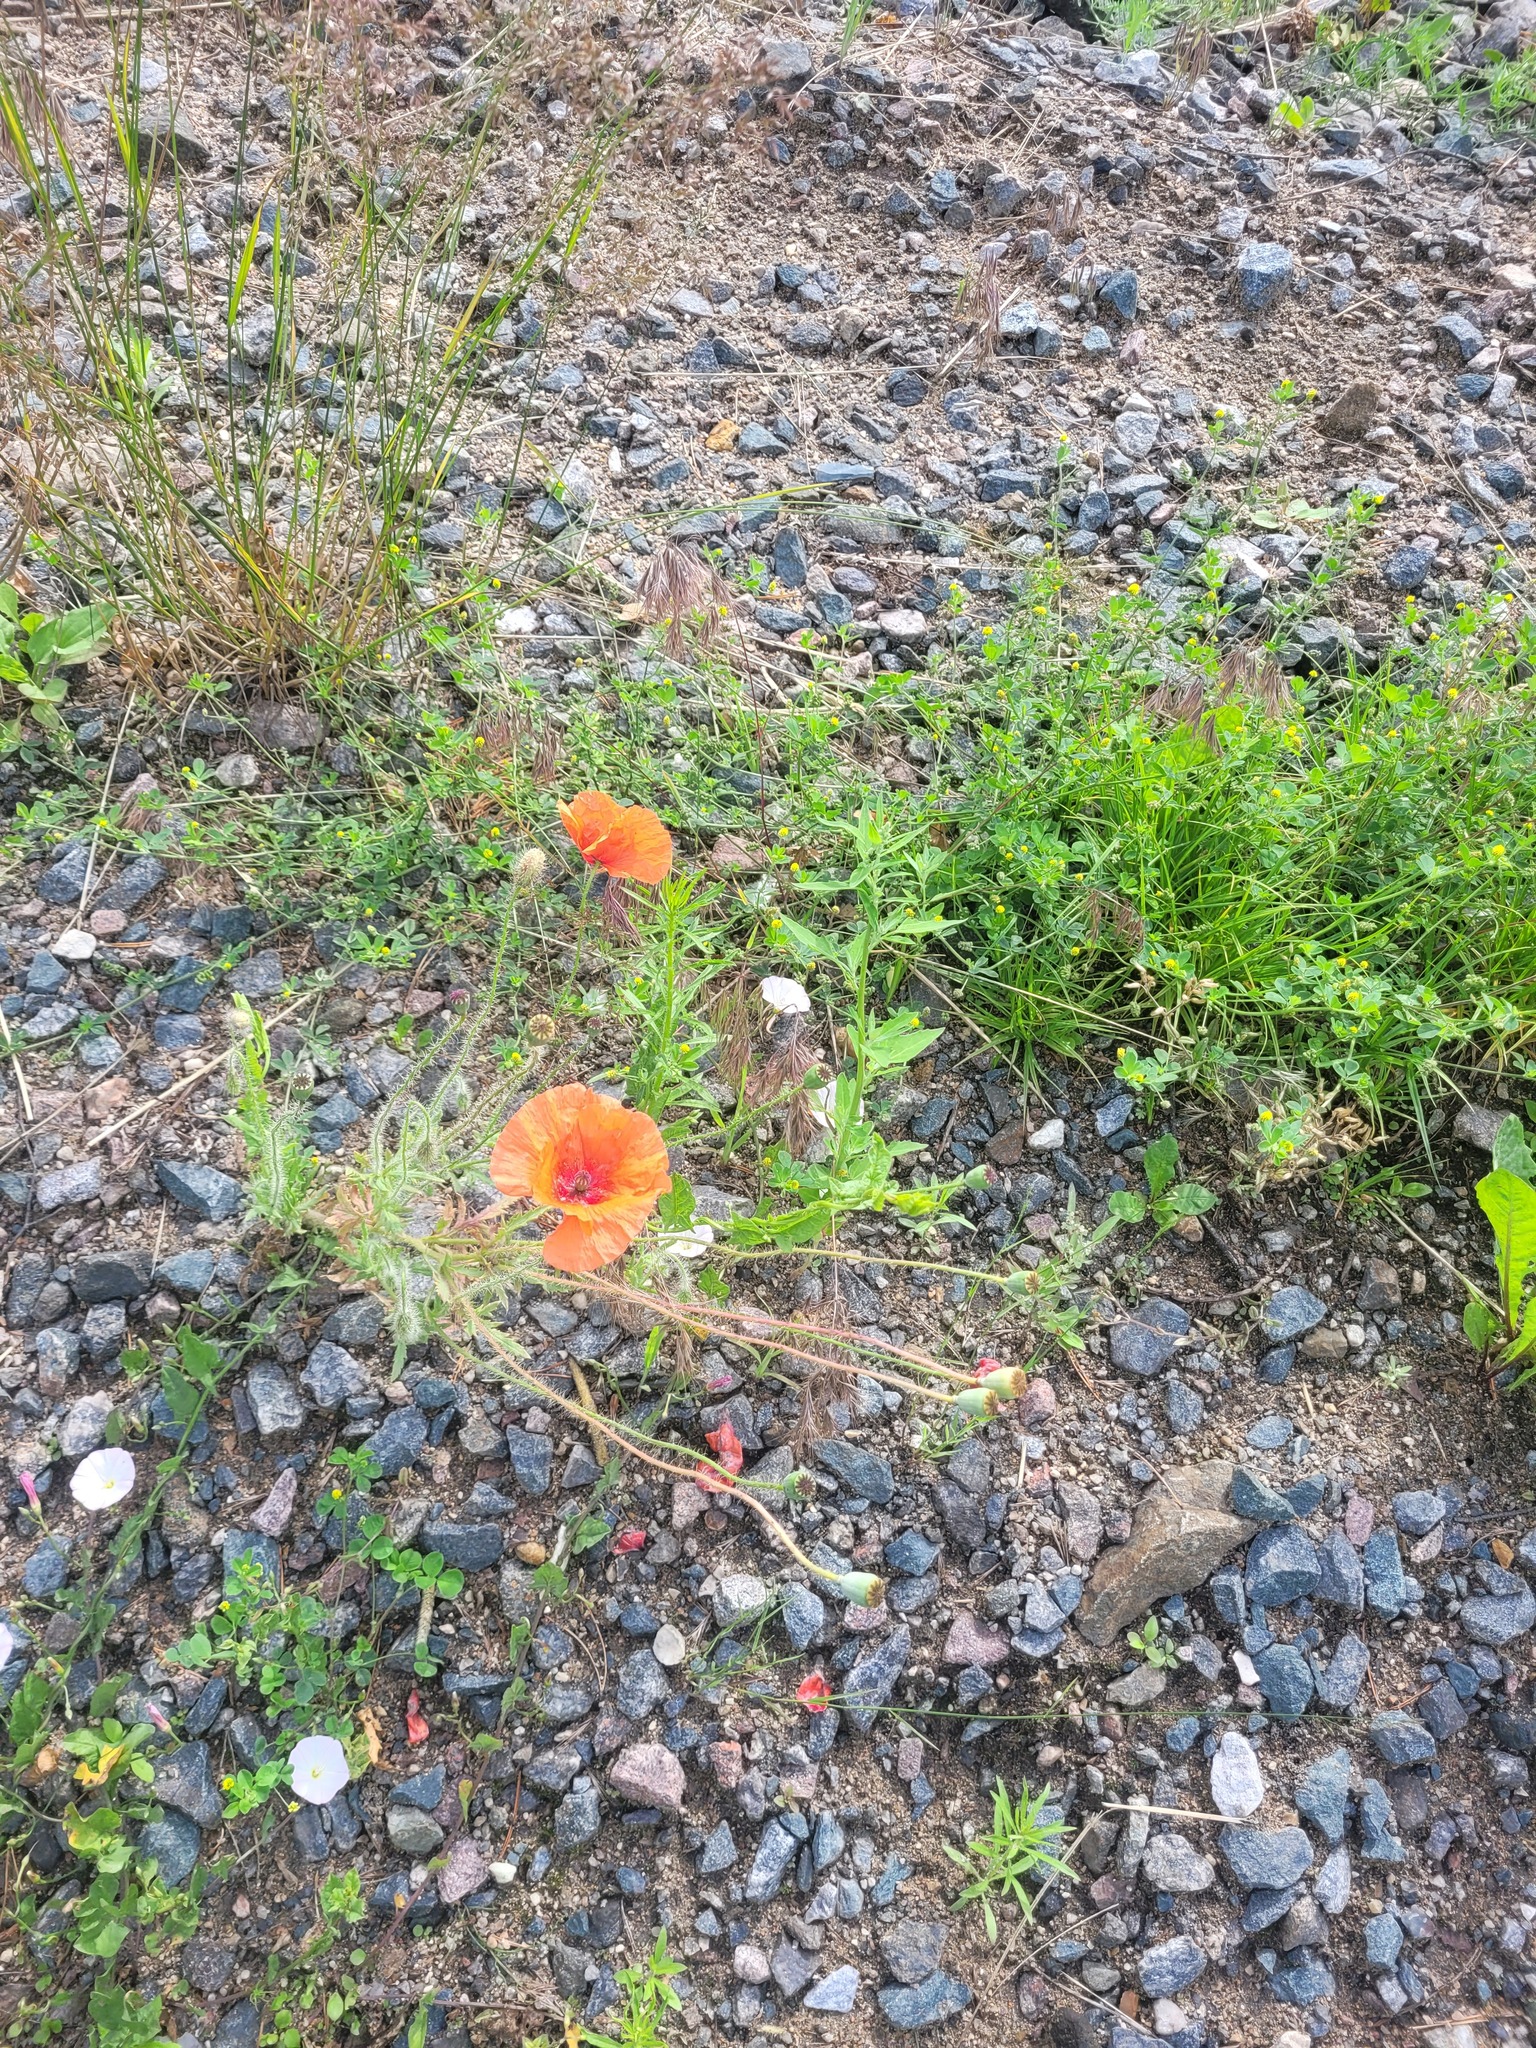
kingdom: Plantae
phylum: Tracheophyta
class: Magnoliopsida
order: Ranunculales
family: Papaveraceae
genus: Papaver
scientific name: Papaver rhoeas
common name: Corn poppy
